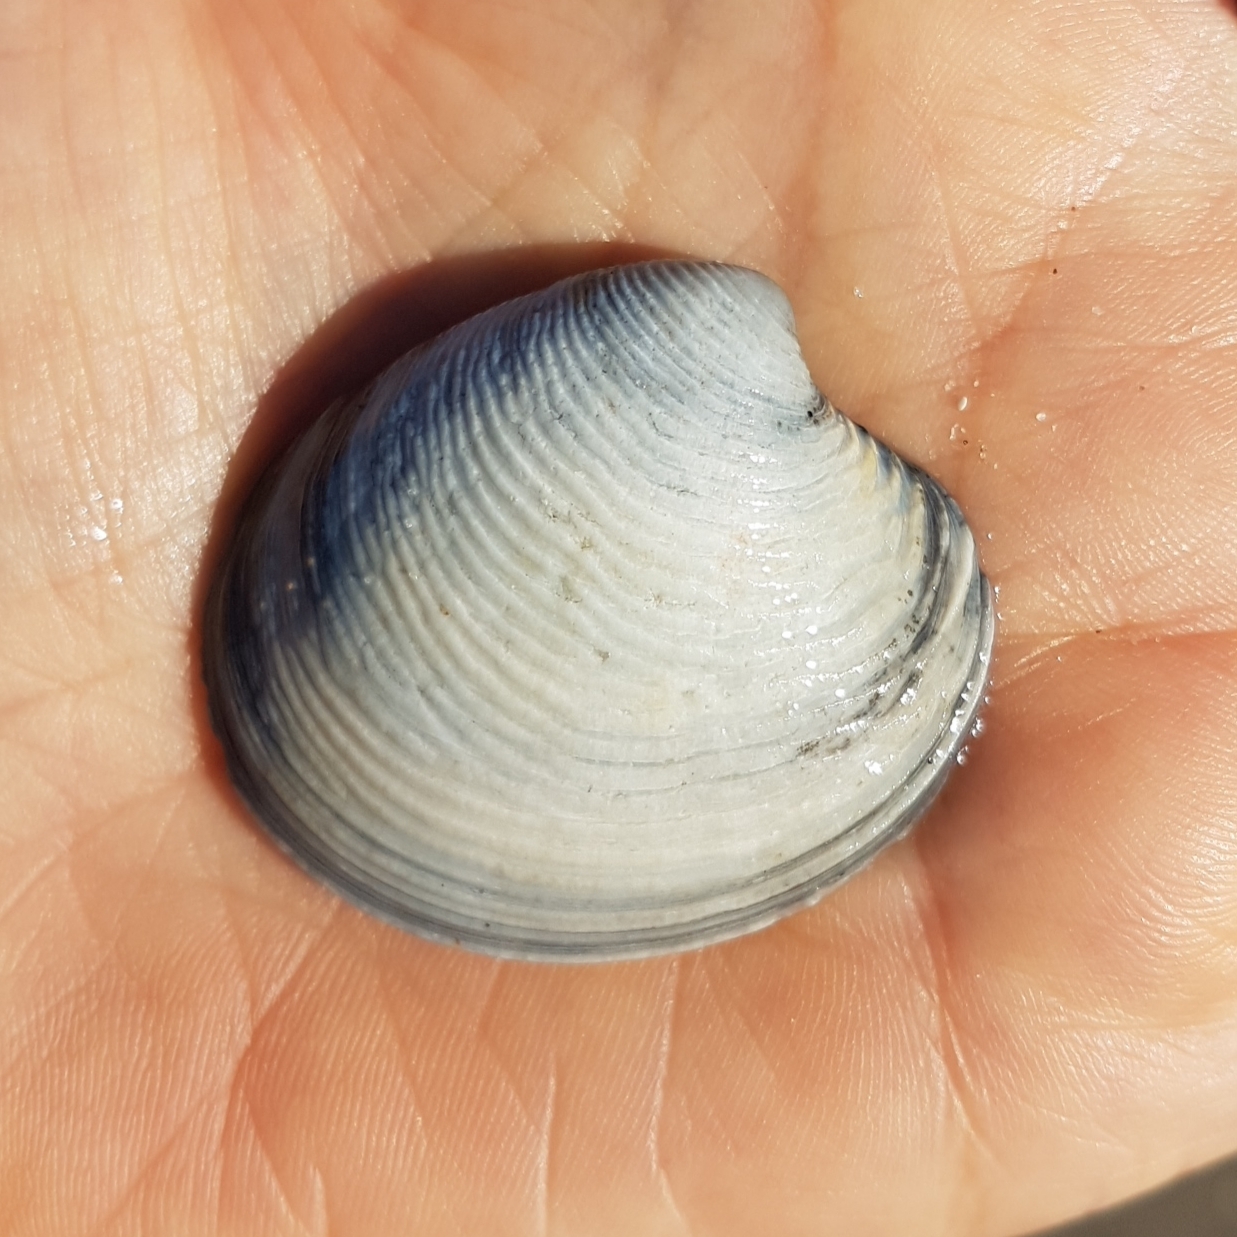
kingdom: Animalia
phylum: Mollusca
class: Bivalvia
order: Venerida
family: Veneridae
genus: Chamelea
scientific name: Chamelea gallina
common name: Chicken venus
